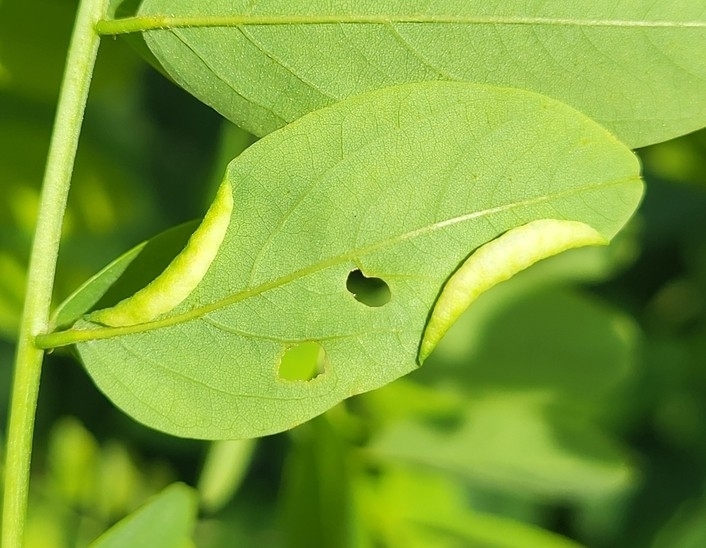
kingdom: Animalia
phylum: Arthropoda
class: Insecta
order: Diptera
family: Cecidomyiidae
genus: Obolodiplosis
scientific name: Obolodiplosis robiniae
